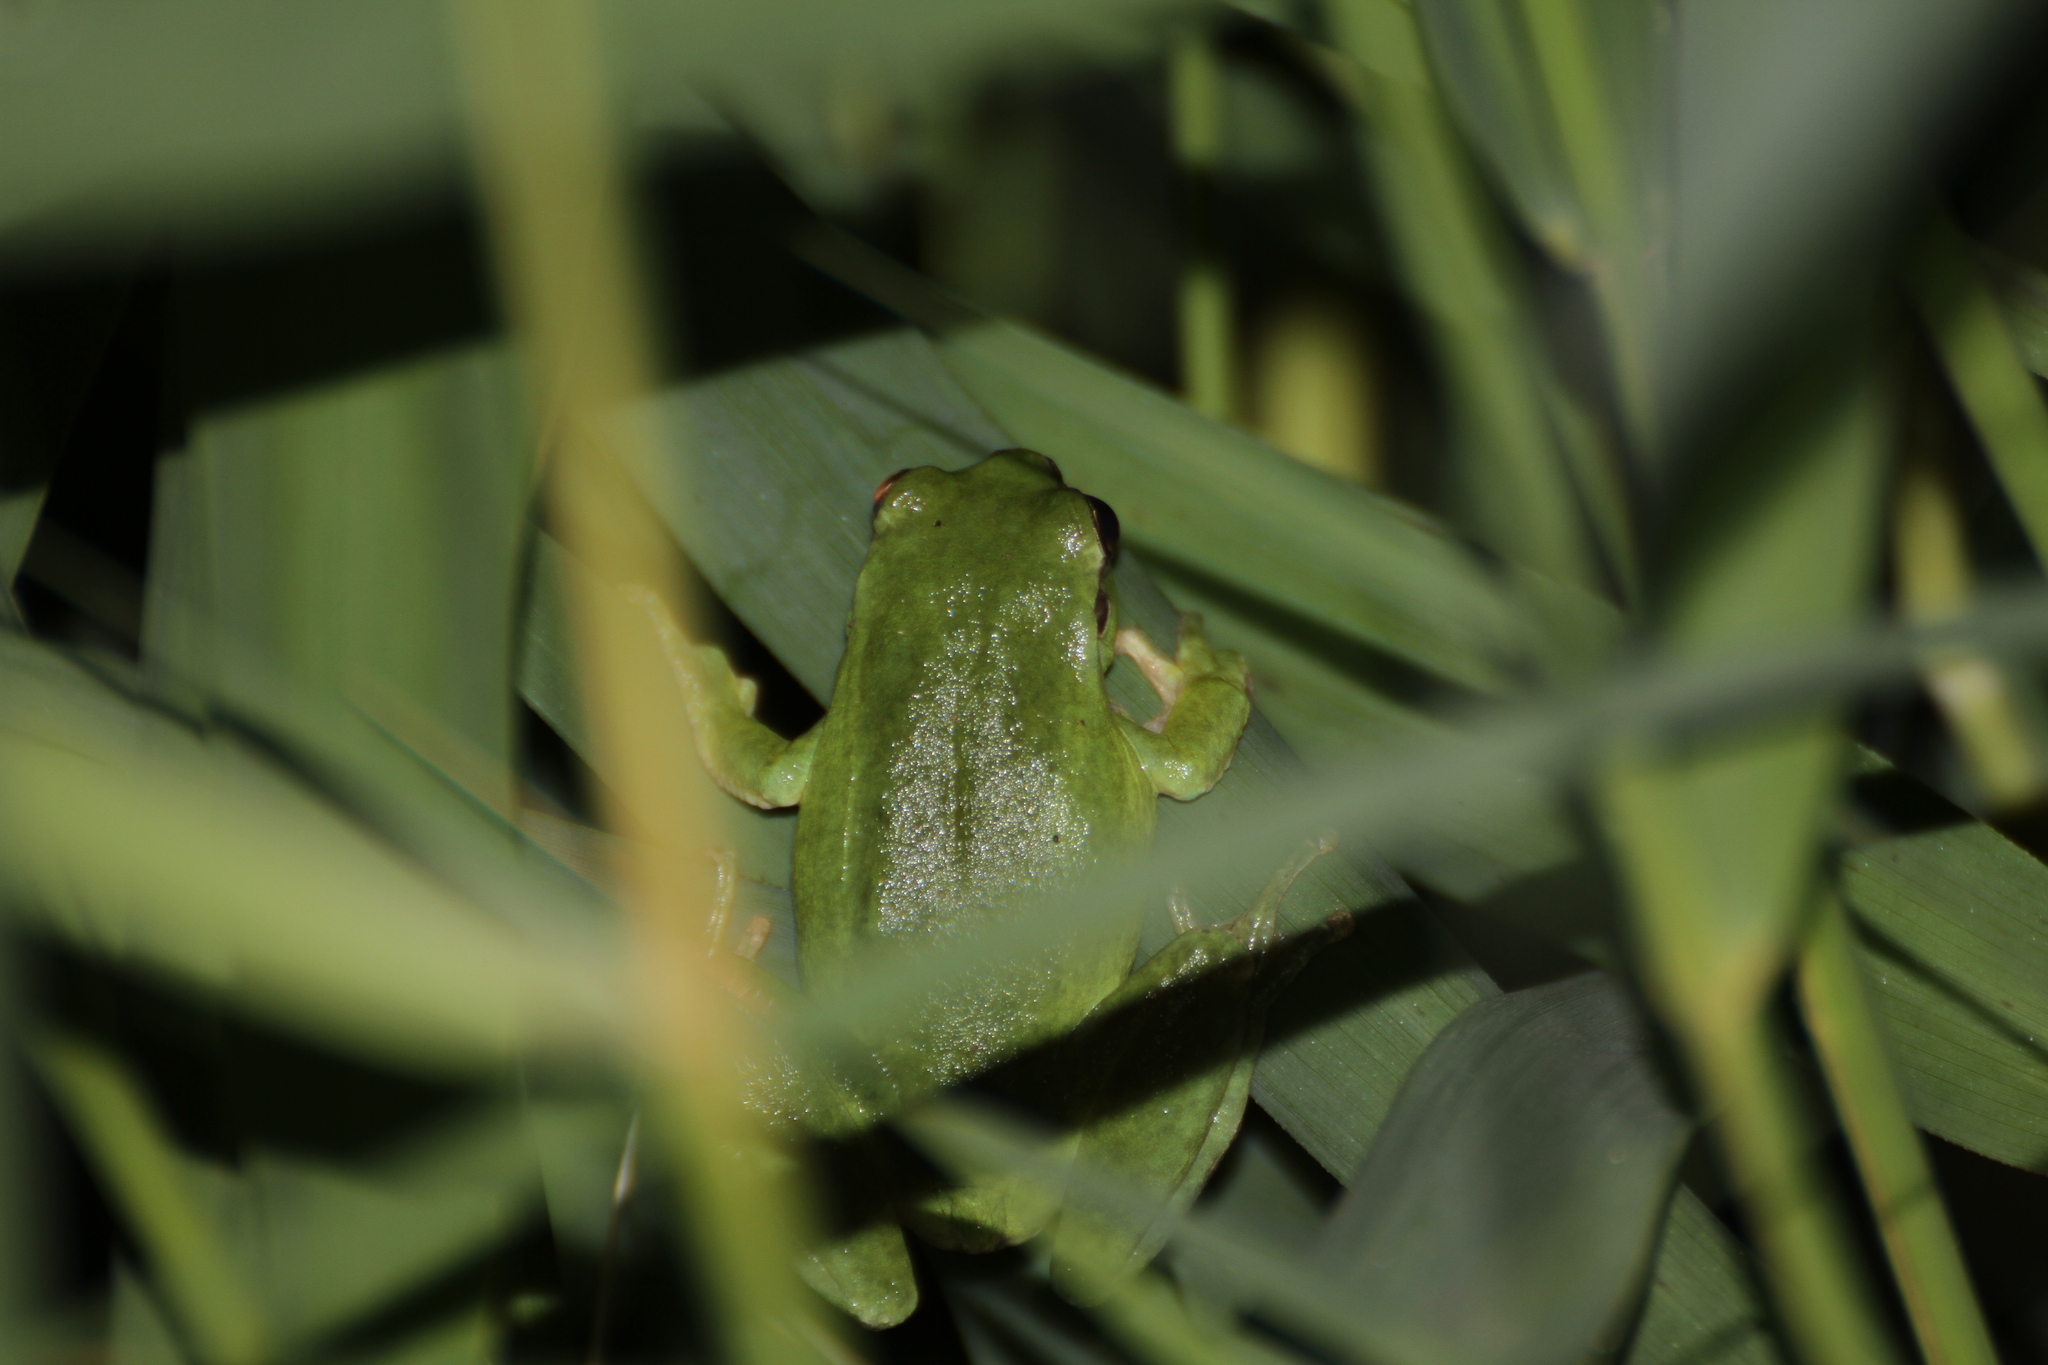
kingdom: Animalia
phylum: Chordata
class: Amphibia
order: Anura
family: Hylidae
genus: Hyla
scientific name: Hyla meridionalis
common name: Stripeless tree frog
